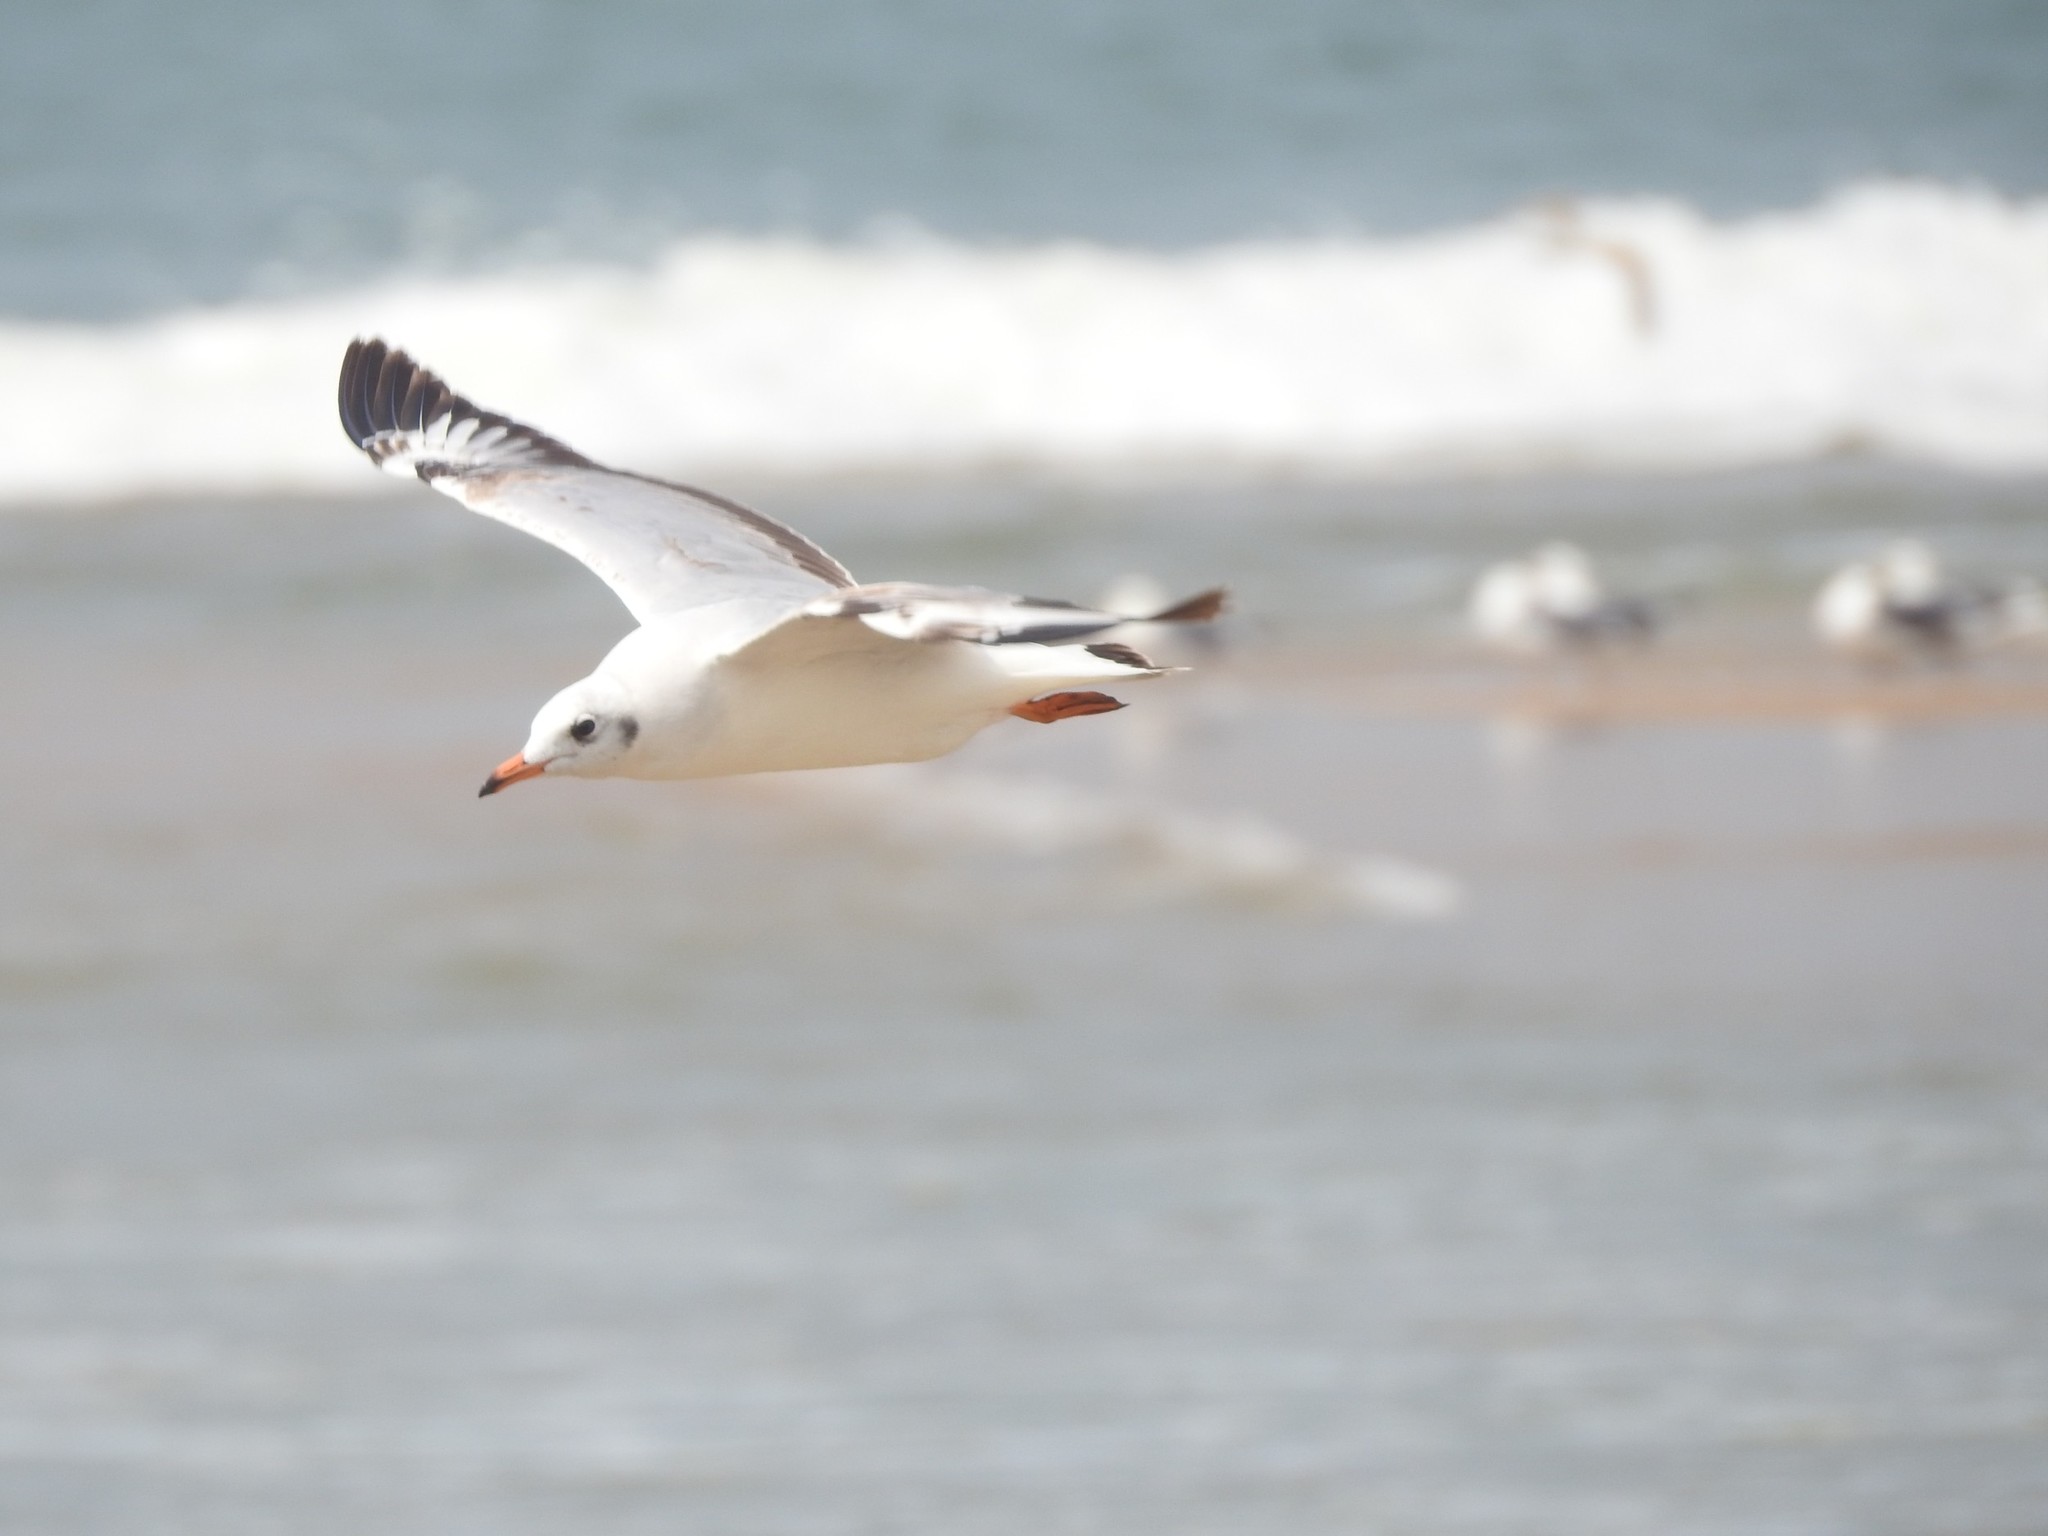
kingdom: Animalia
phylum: Chordata
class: Aves
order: Charadriiformes
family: Laridae
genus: Chroicocephalus
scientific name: Chroicocephalus brunnicephalus
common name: Brown-headed gull
